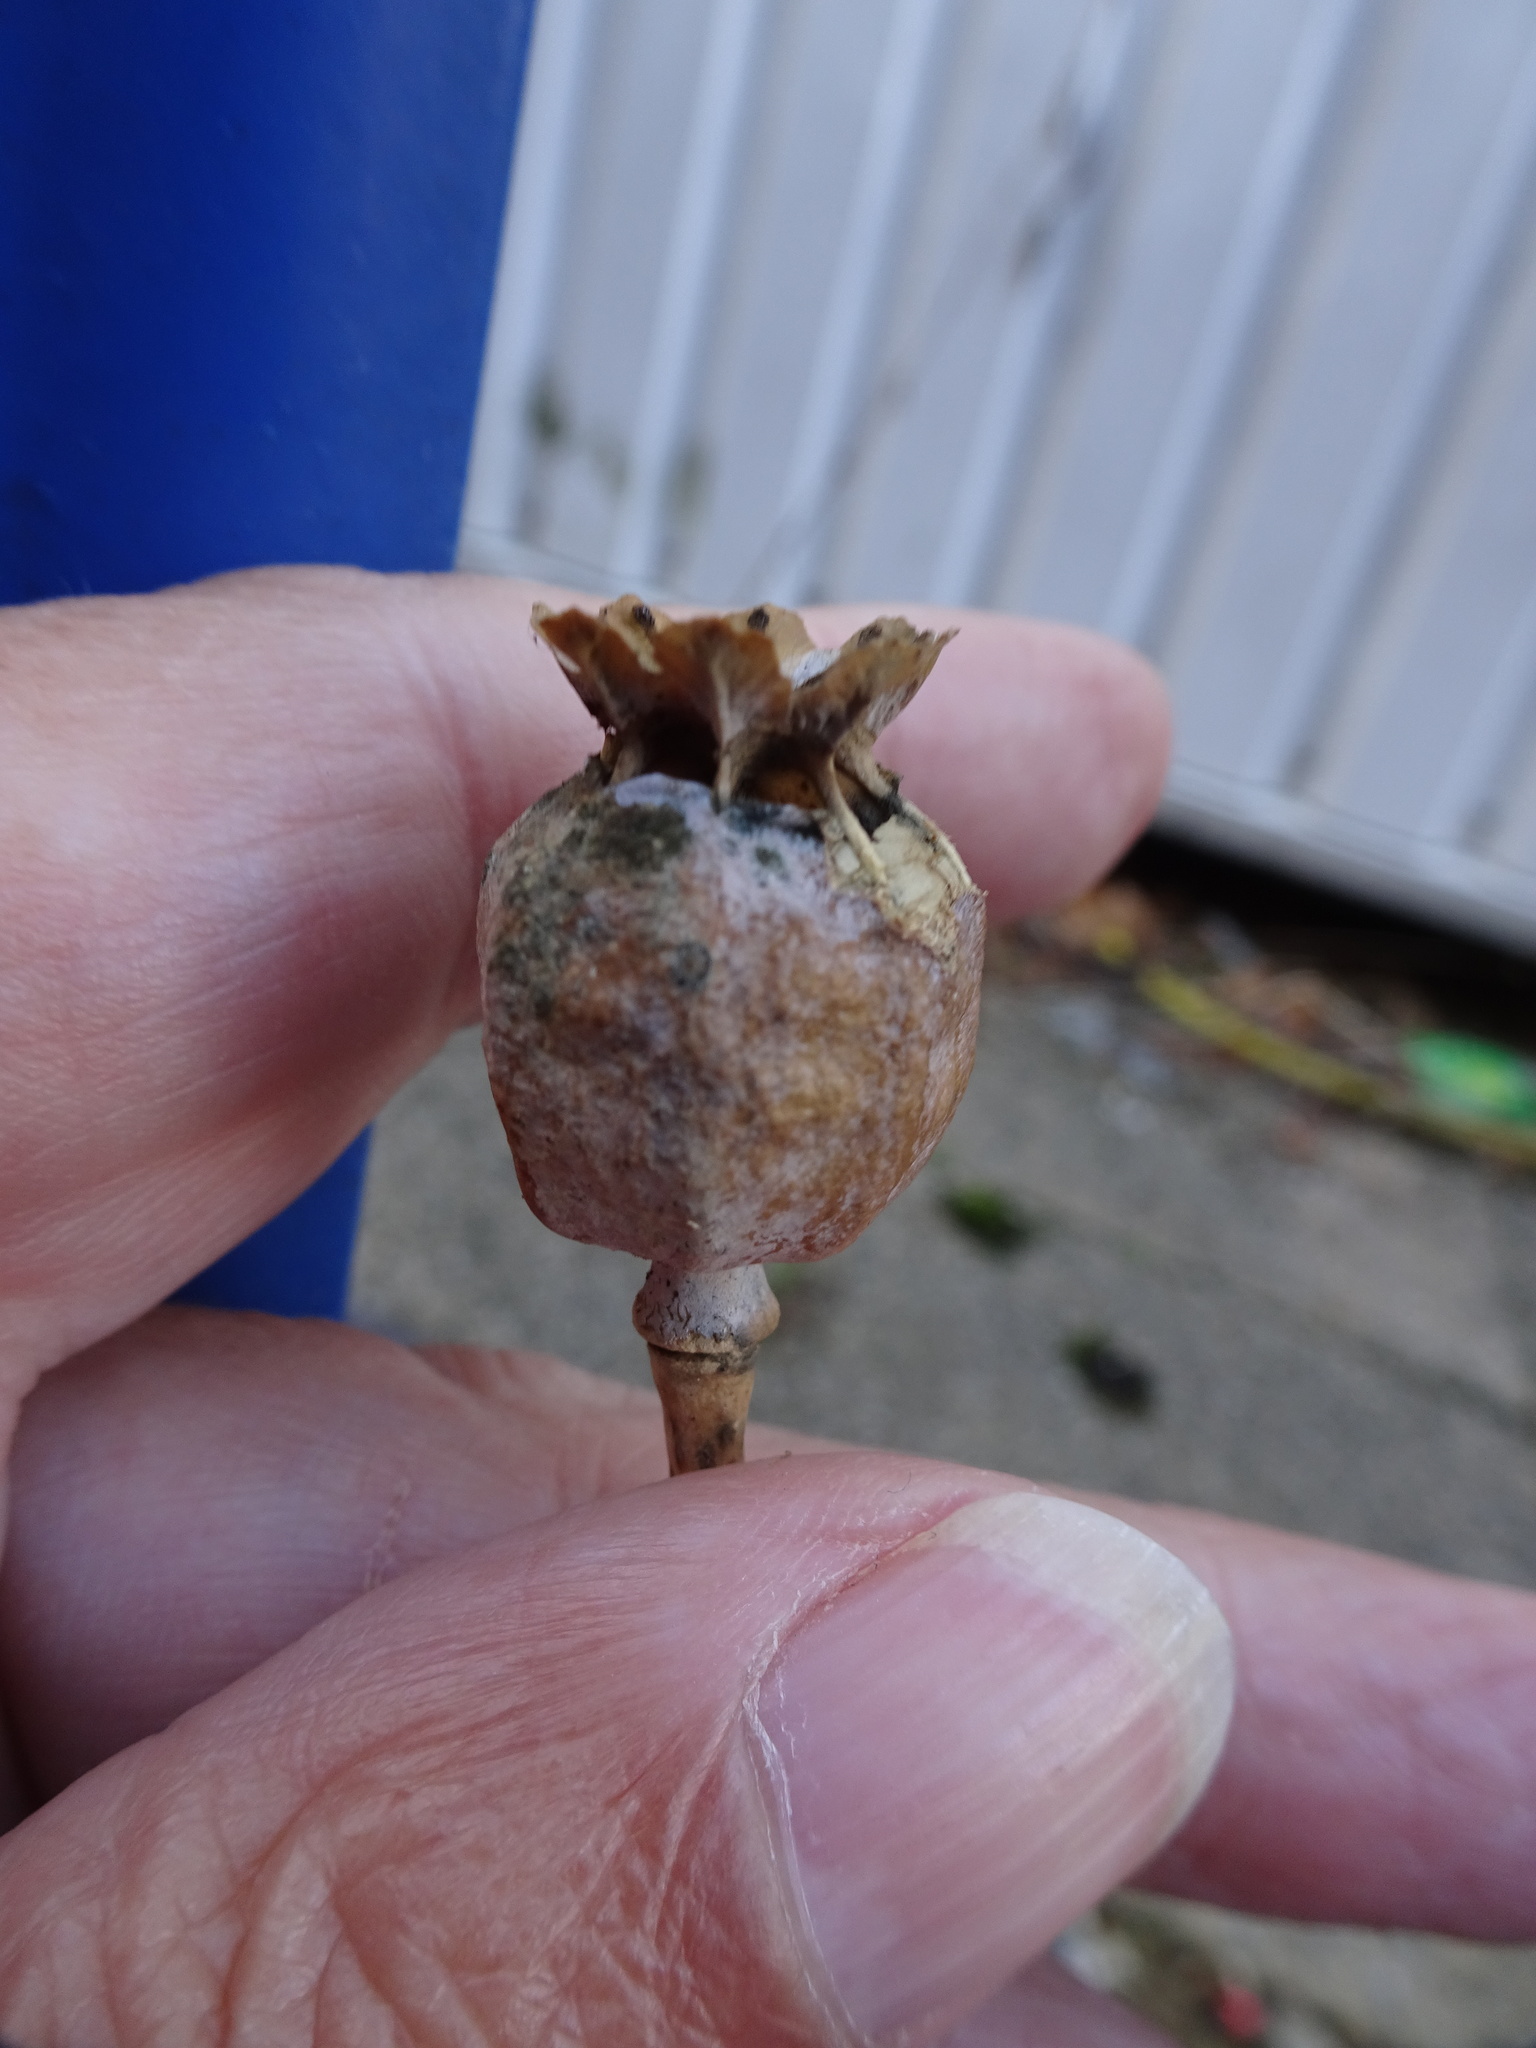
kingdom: Plantae
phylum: Tracheophyta
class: Magnoliopsida
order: Ranunculales
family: Papaveraceae
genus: Papaver
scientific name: Papaver somniferum
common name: Opium poppy
